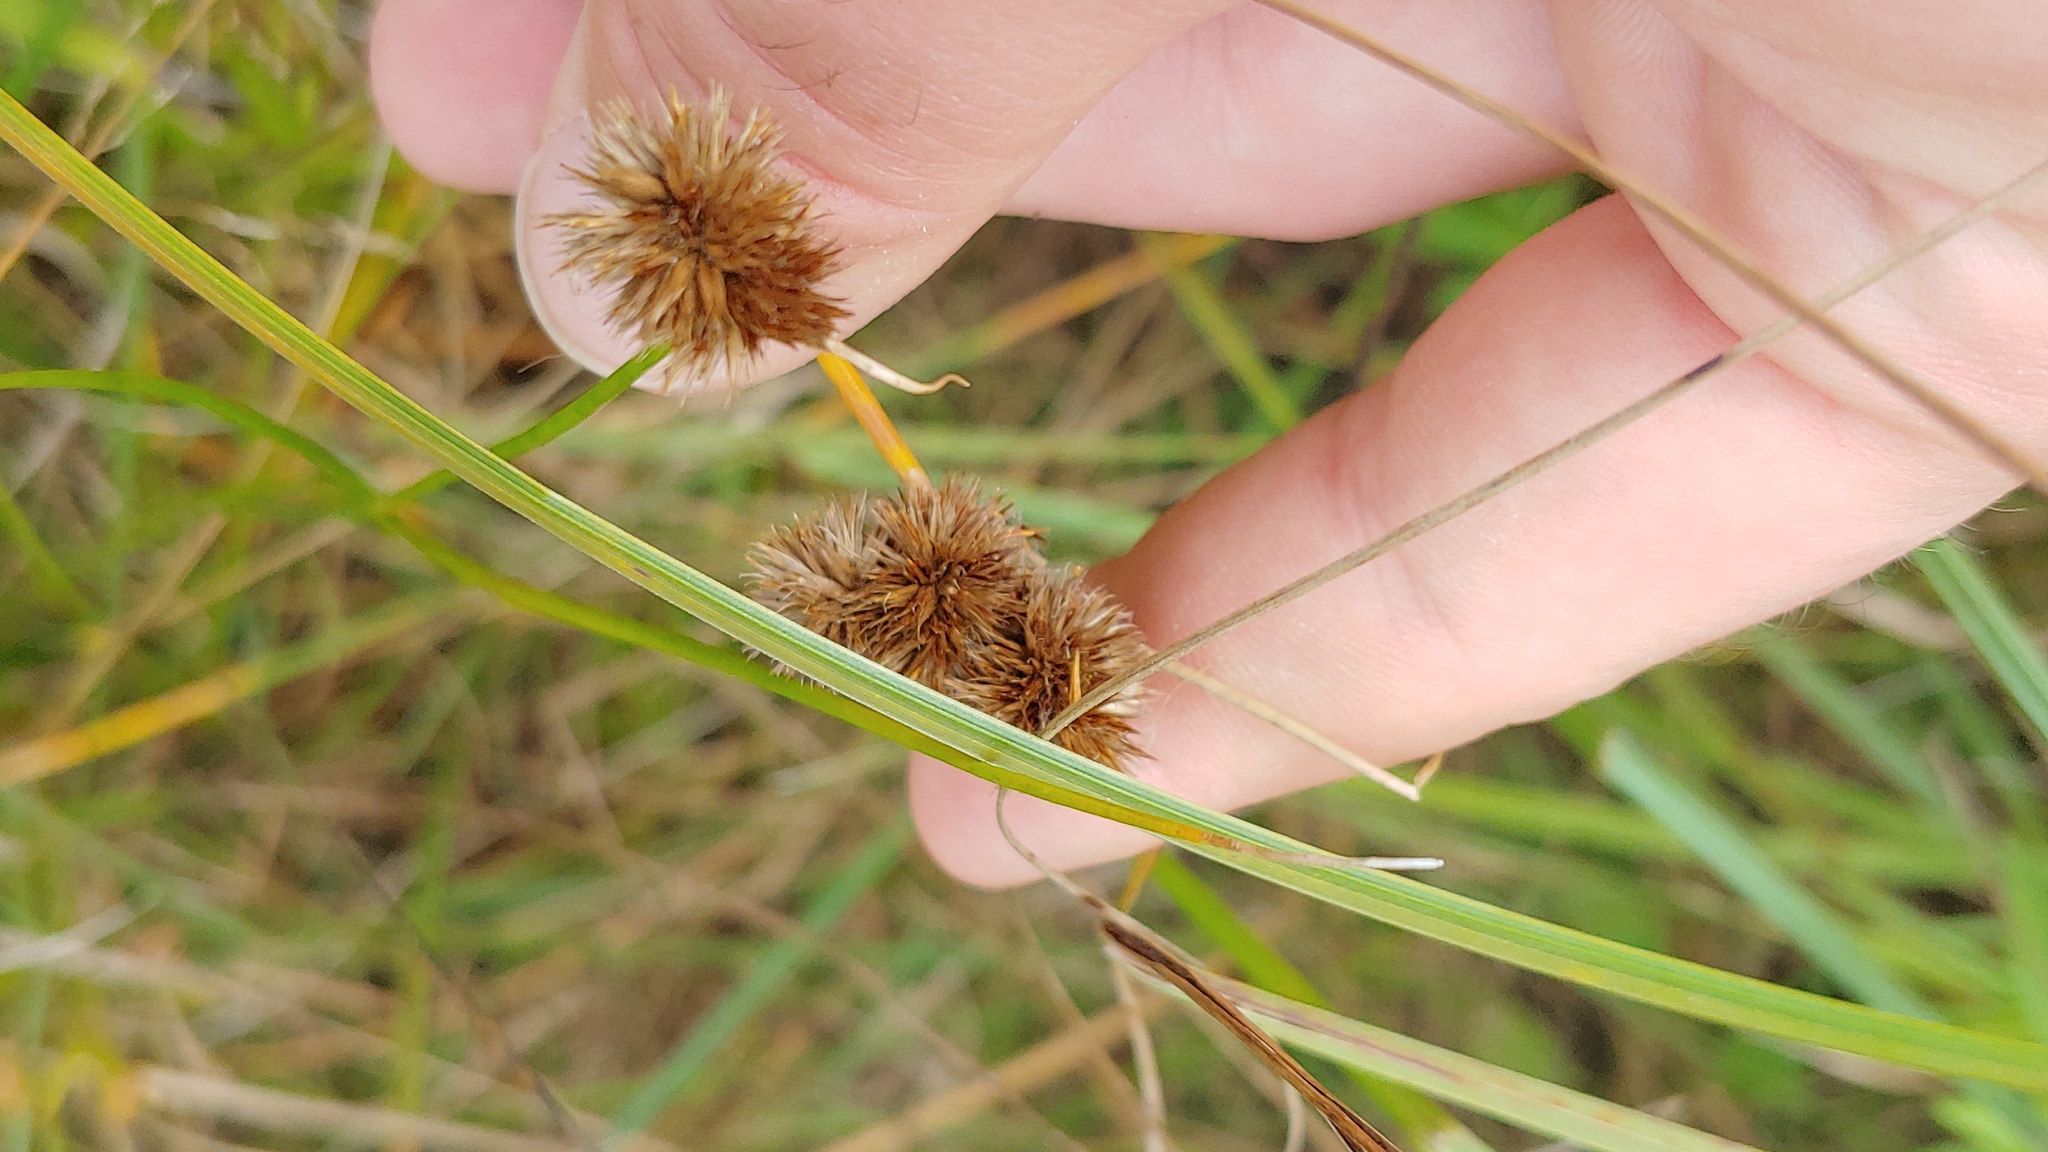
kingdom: Plantae
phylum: Tracheophyta
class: Liliopsida
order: Poales
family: Juncaceae
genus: Juncus
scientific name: Juncus torreyi
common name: Torrey's rush
